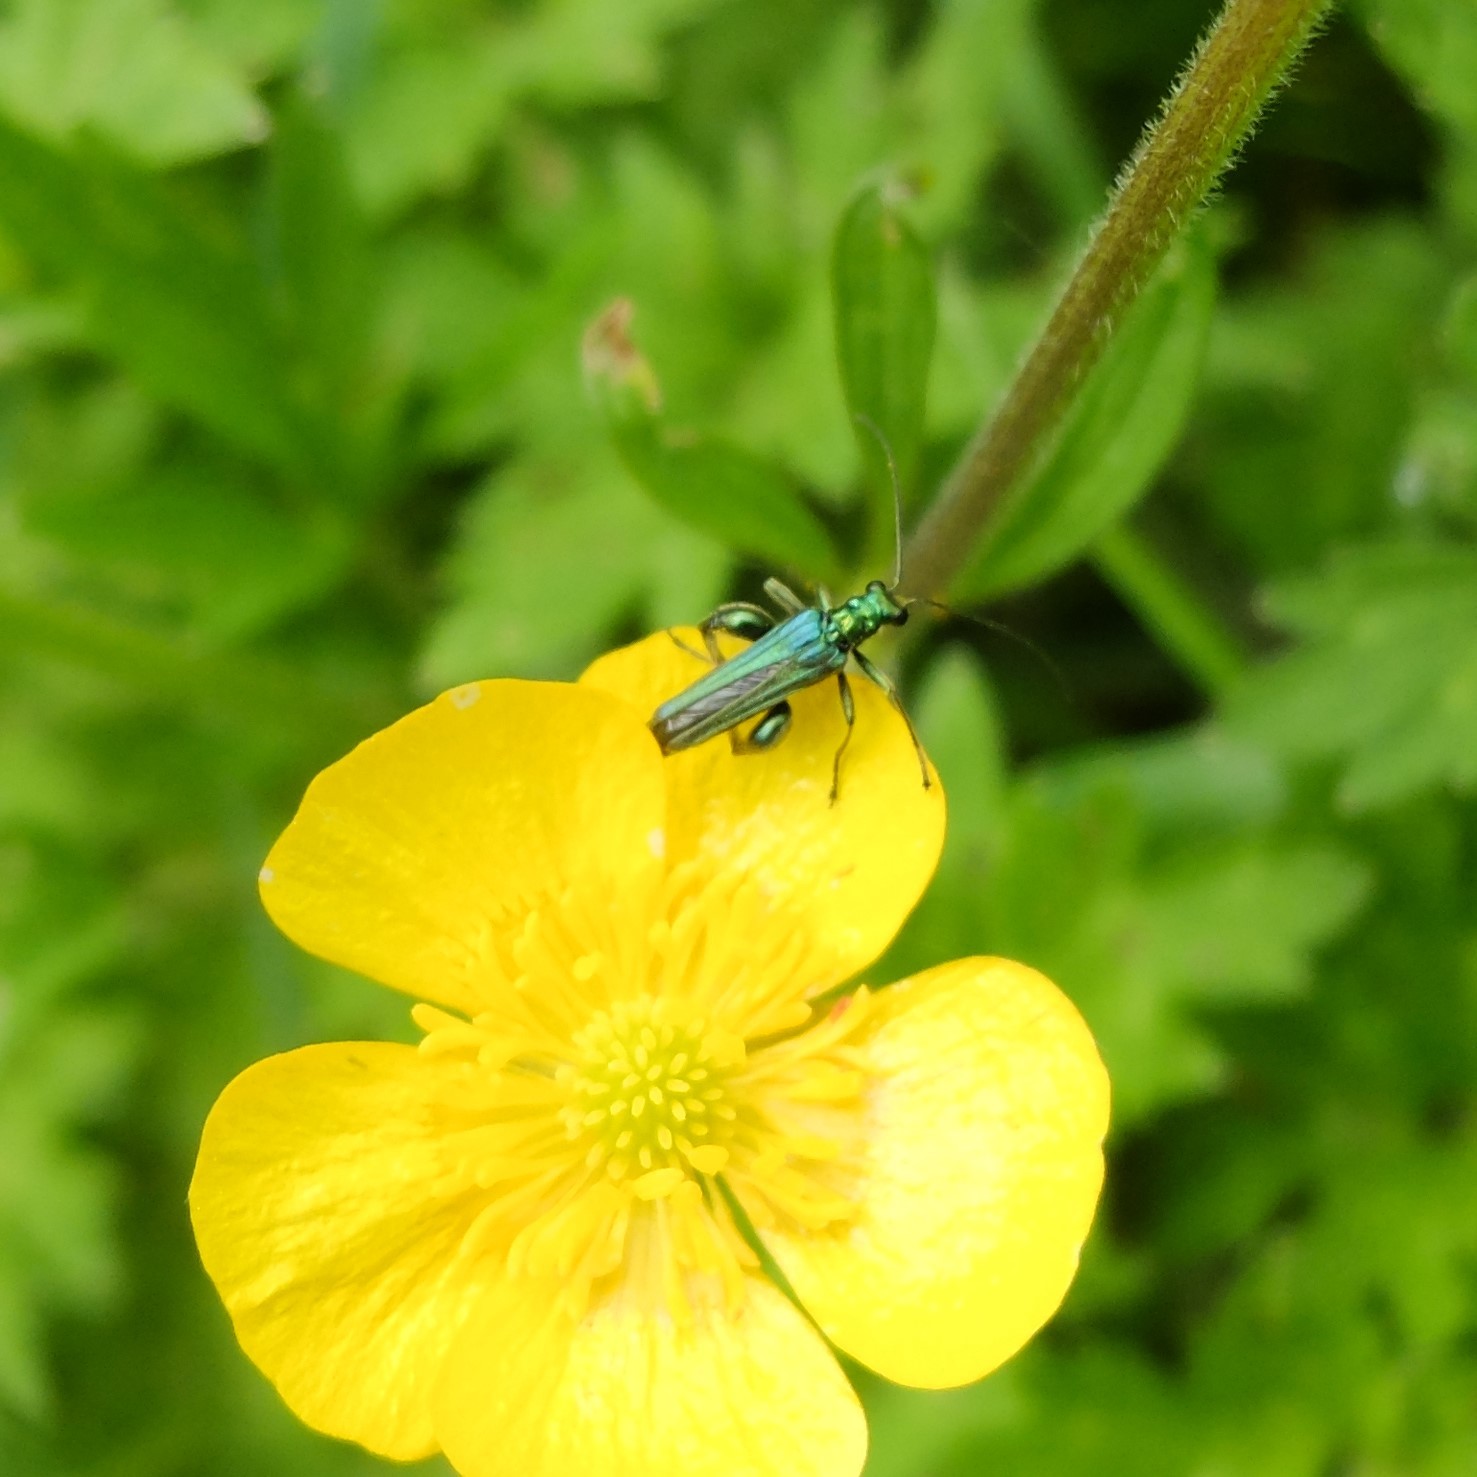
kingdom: Animalia
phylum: Arthropoda
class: Insecta
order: Coleoptera
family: Oedemeridae
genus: Oedemera
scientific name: Oedemera nobilis
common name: Swollen-thighed beetle
